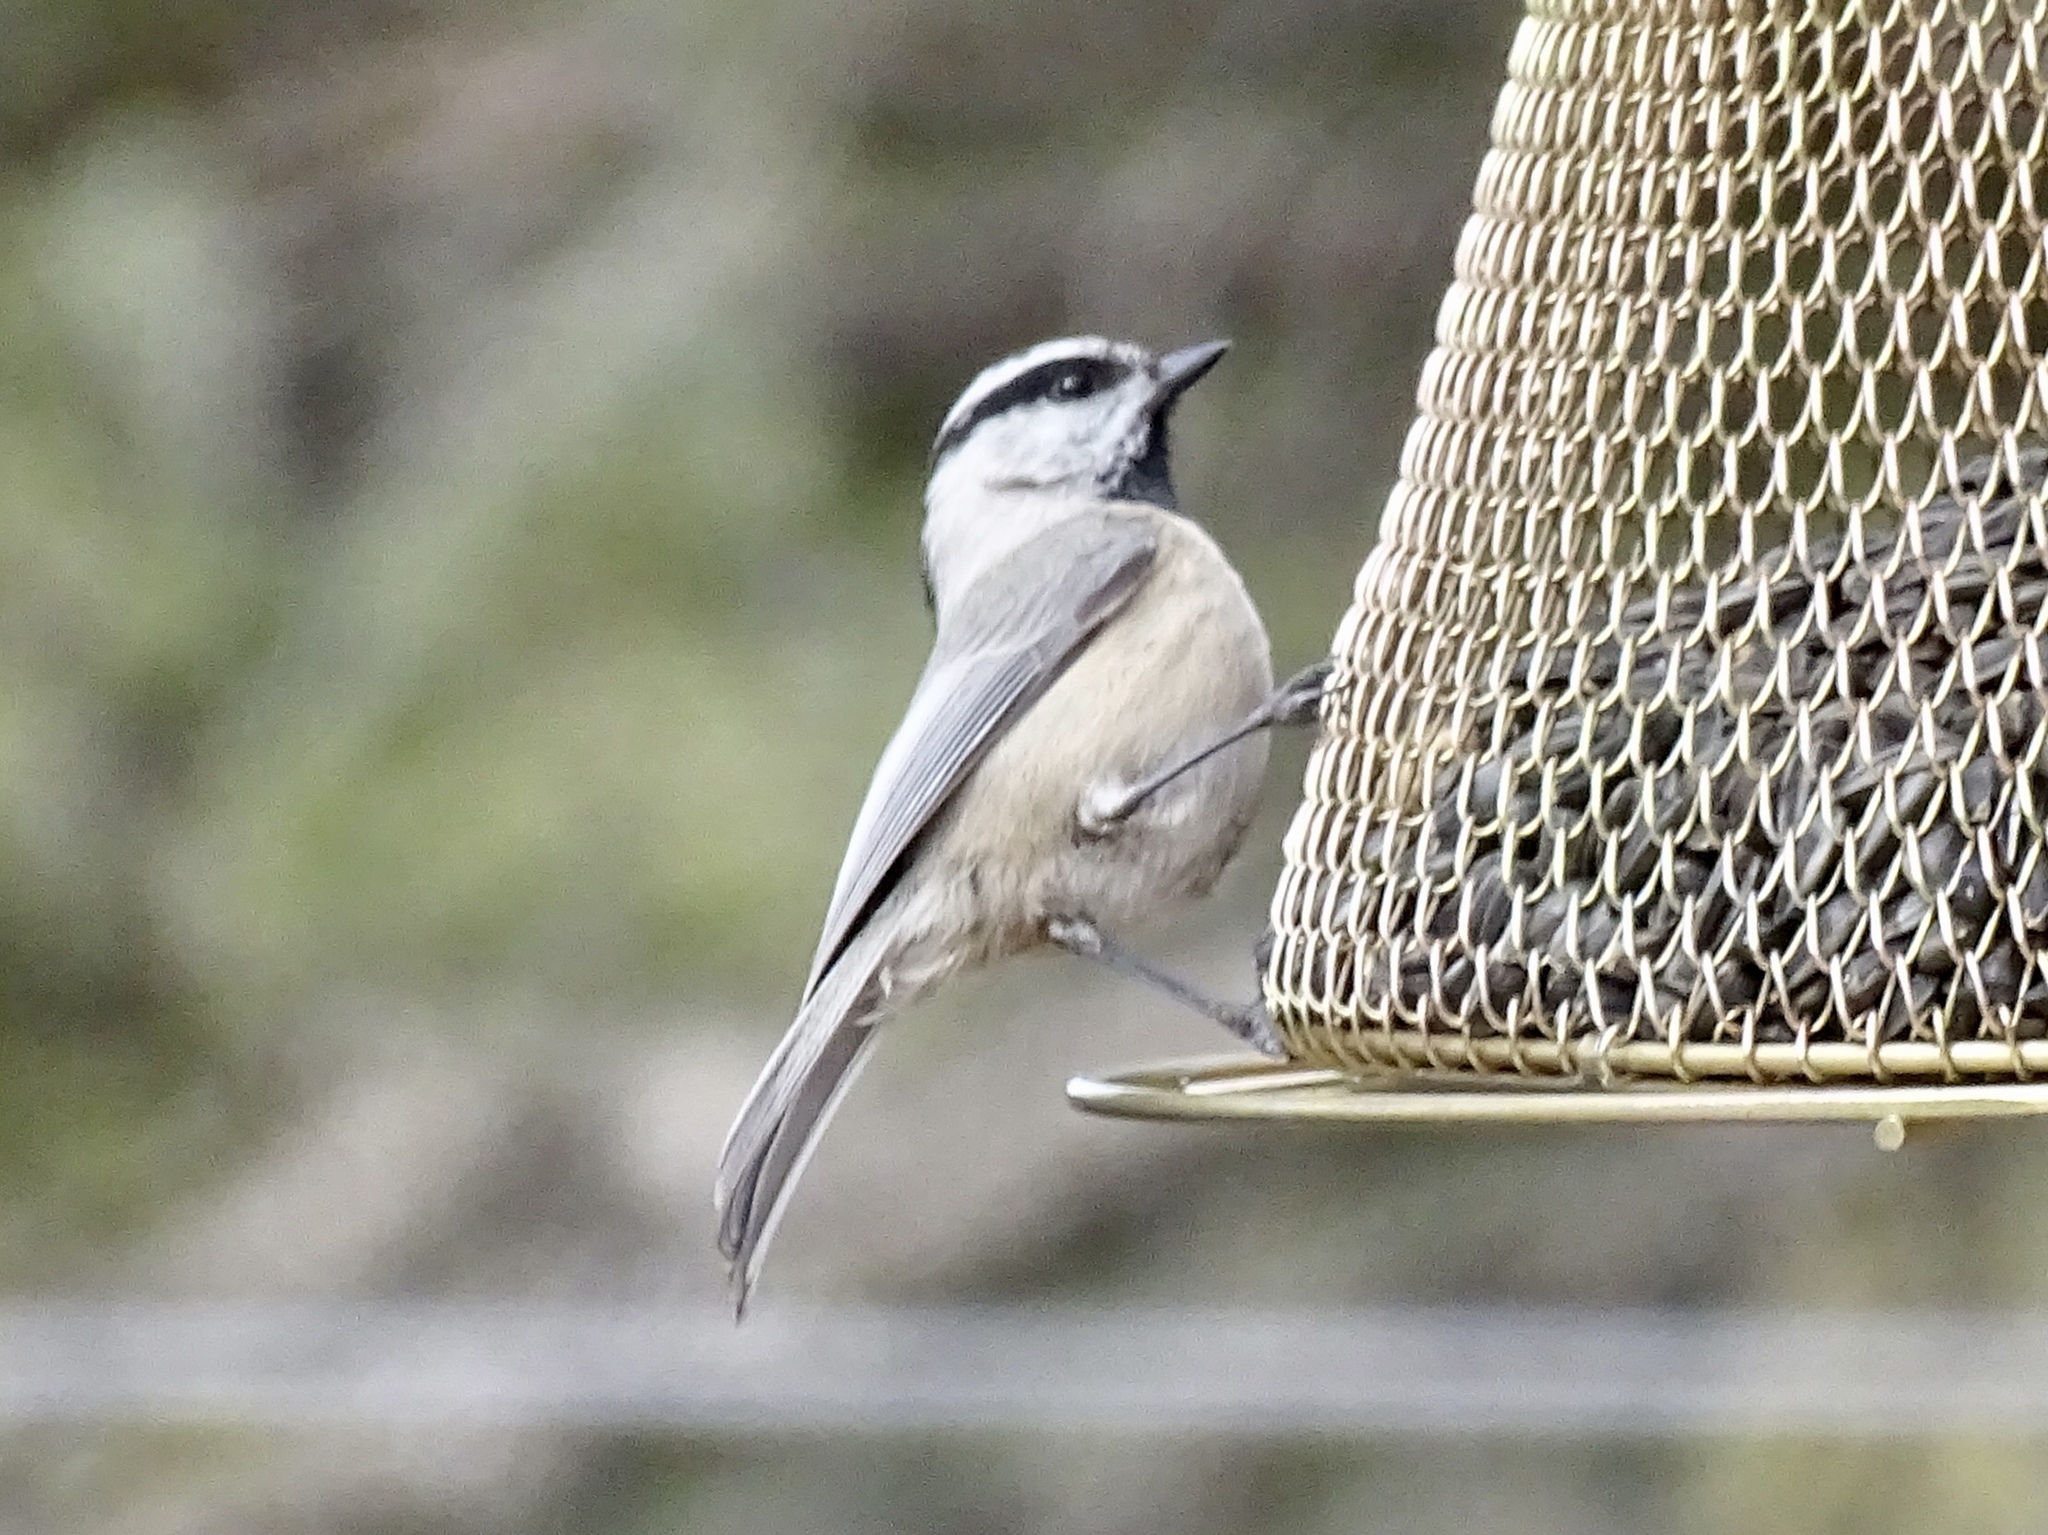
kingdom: Animalia
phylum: Chordata
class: Aves
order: Passeriformes
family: Paridae
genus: Poecile
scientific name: Poecile gambeli
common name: Mountain chickadee
